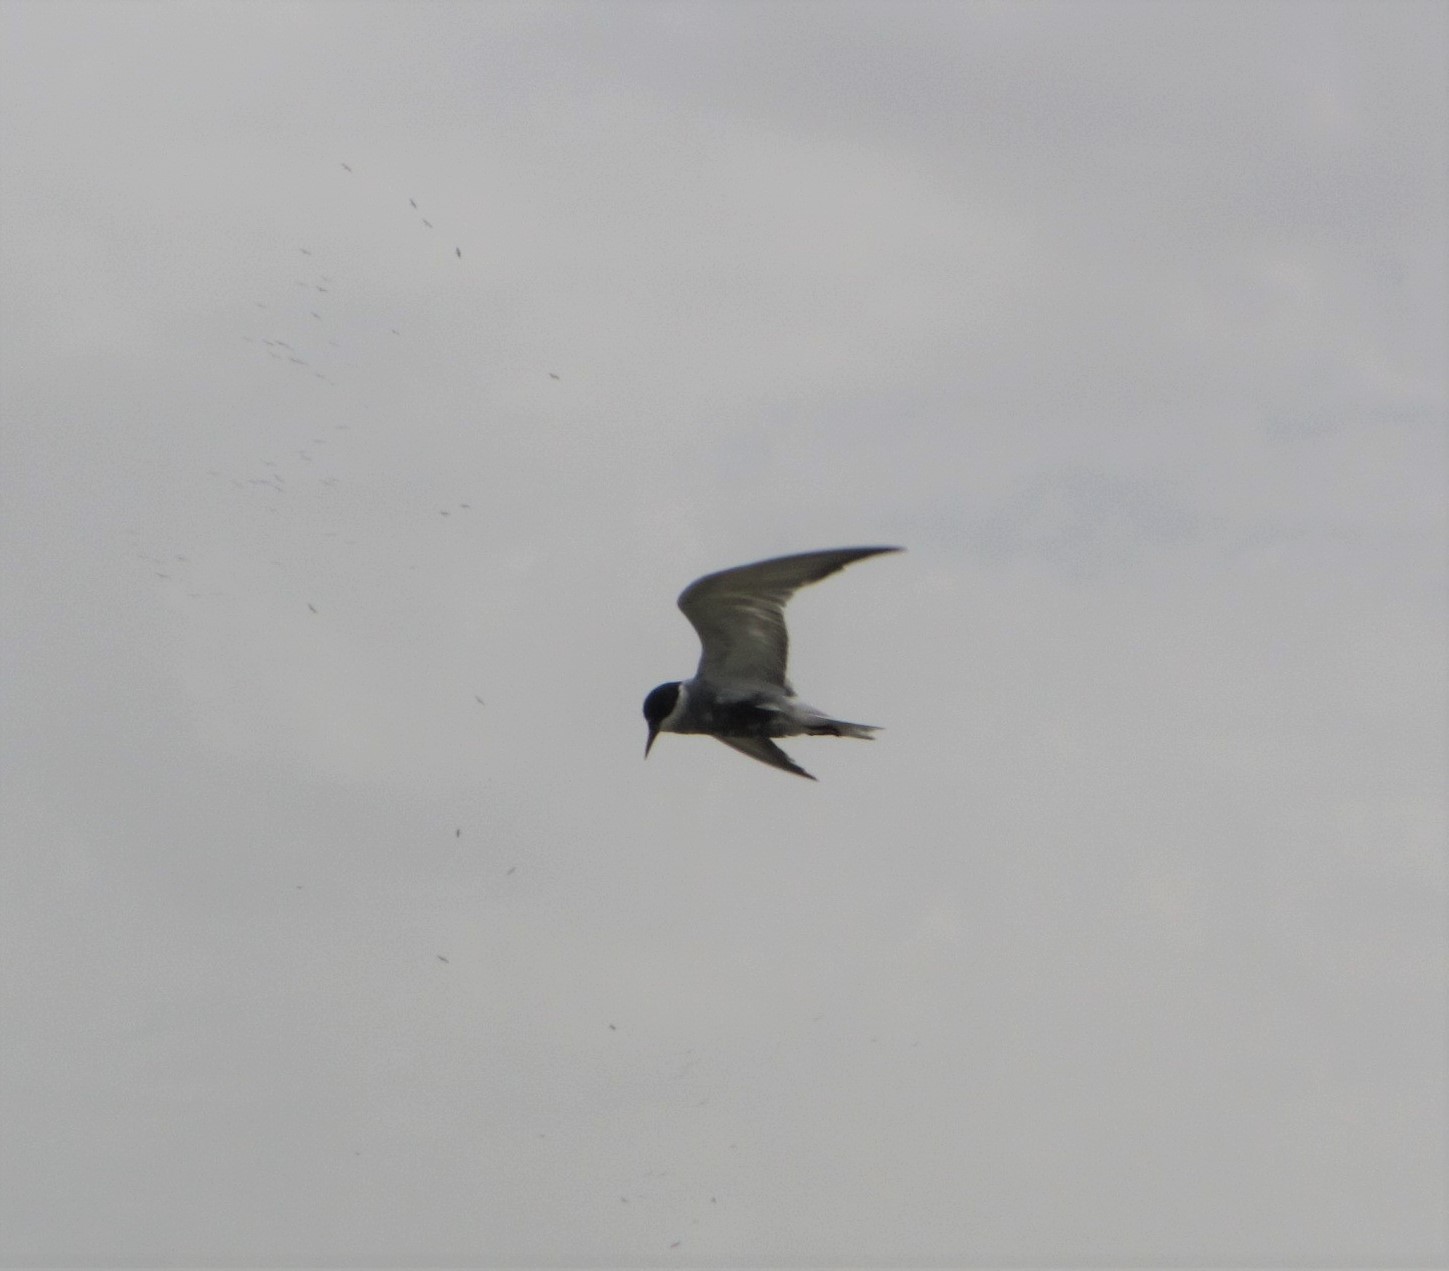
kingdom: Animalia
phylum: Chordata
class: Aves
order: Charadriiformes
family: Laridae
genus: Chlidonias
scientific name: Chlidonias hybrida
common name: Whiskered tern
